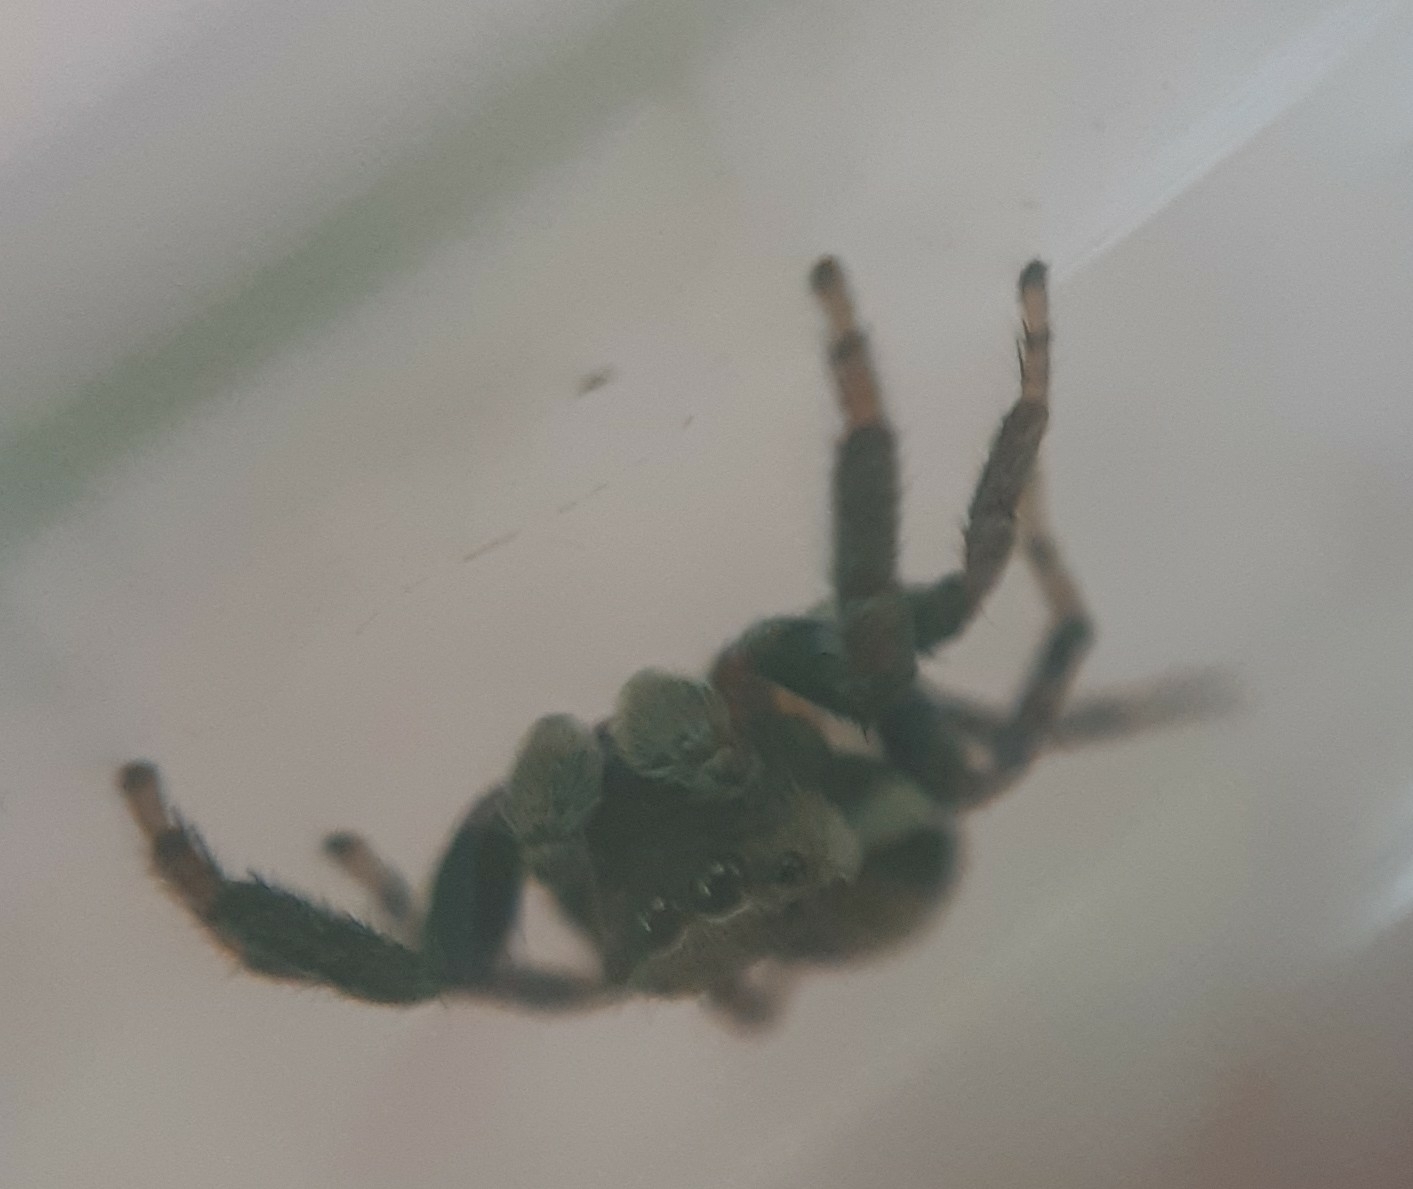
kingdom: Animalia
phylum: Arthropoda
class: Arachnida
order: Araneae
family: Salticidae
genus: Evarcha
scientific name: Evarcha falcata
